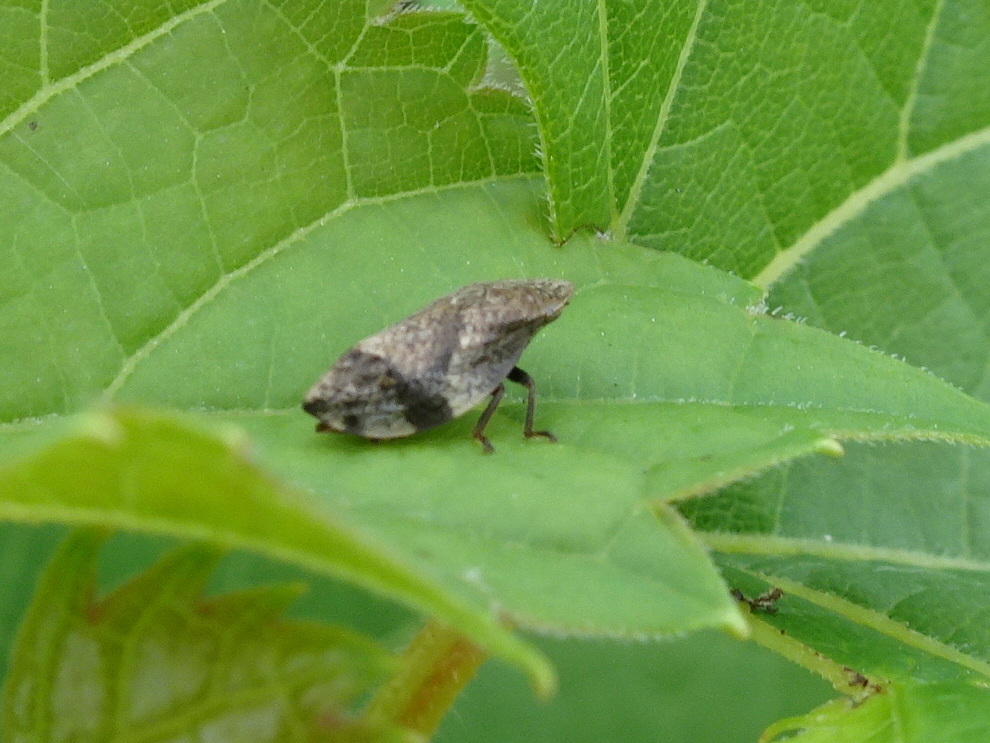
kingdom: Animalia
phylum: Arthropoda
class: Insecta
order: Hemiptera
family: Aphrophoridae
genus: Lepyronia
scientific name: Lepyronia quadrangularis
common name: Diamond-backed spittlebug
